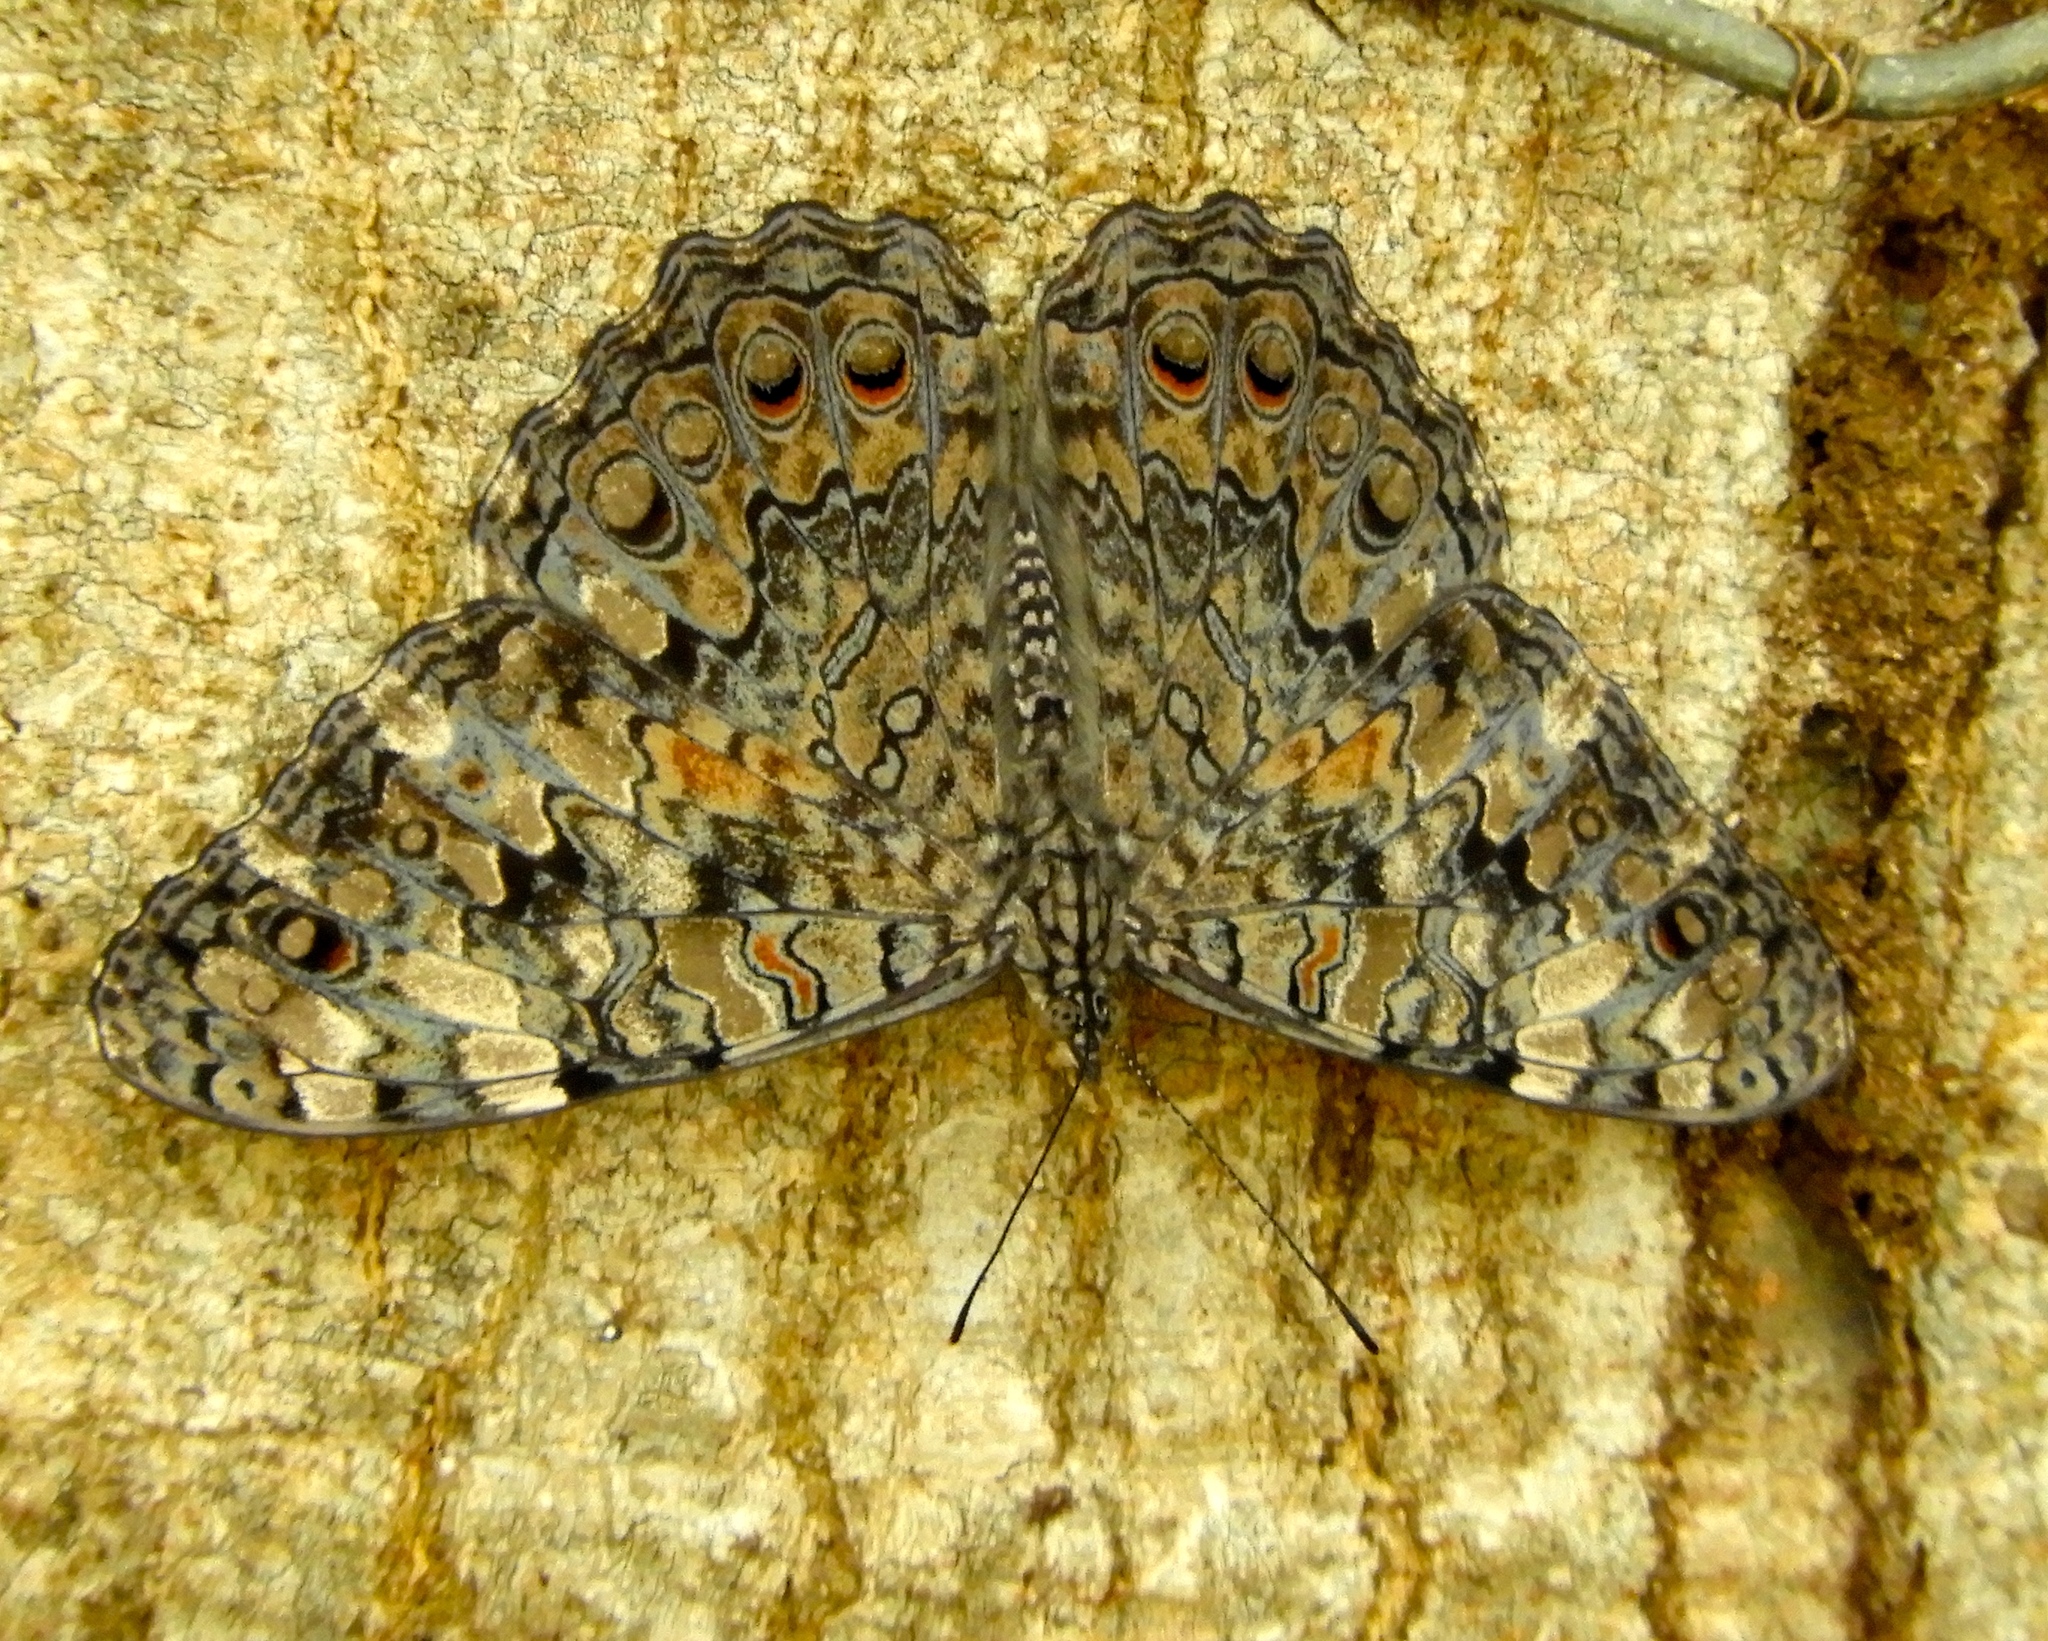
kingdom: Animalia
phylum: Arthropoda
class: Insecta
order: Lepidoptera
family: Nymphalidae
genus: Hamadryas
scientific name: Hamadryas februa
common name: Gray cracker
